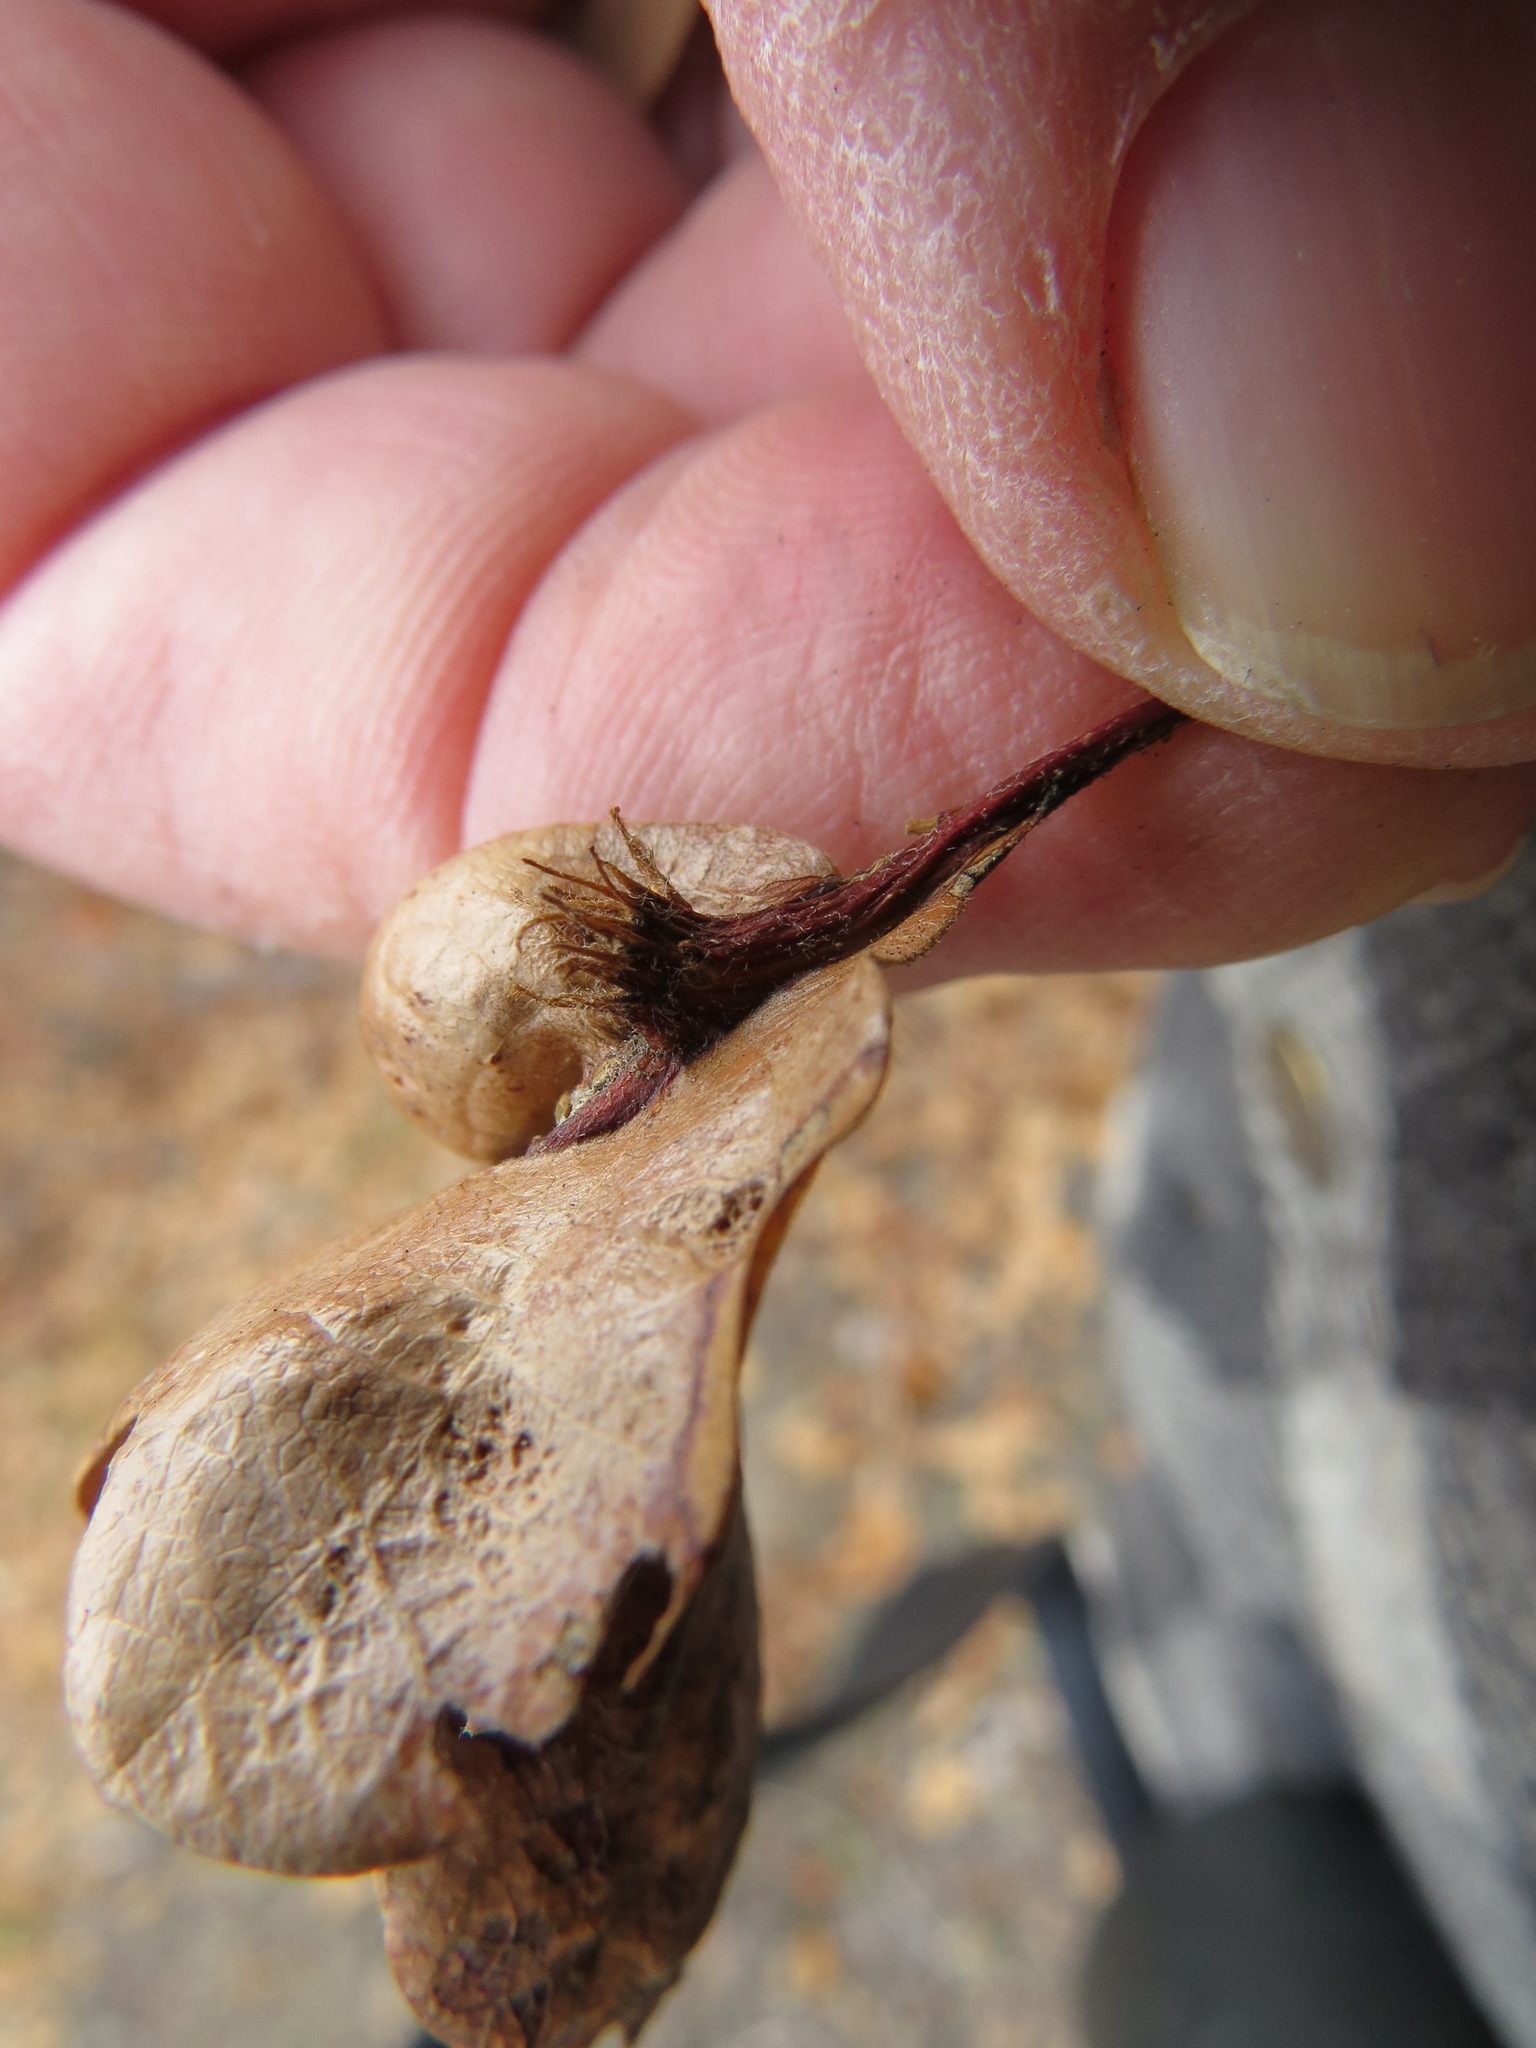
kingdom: Animalia
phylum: Arthropoda
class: Insecta
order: Hymenoptera
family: Cynipidae
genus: Andricus
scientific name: Andricus
